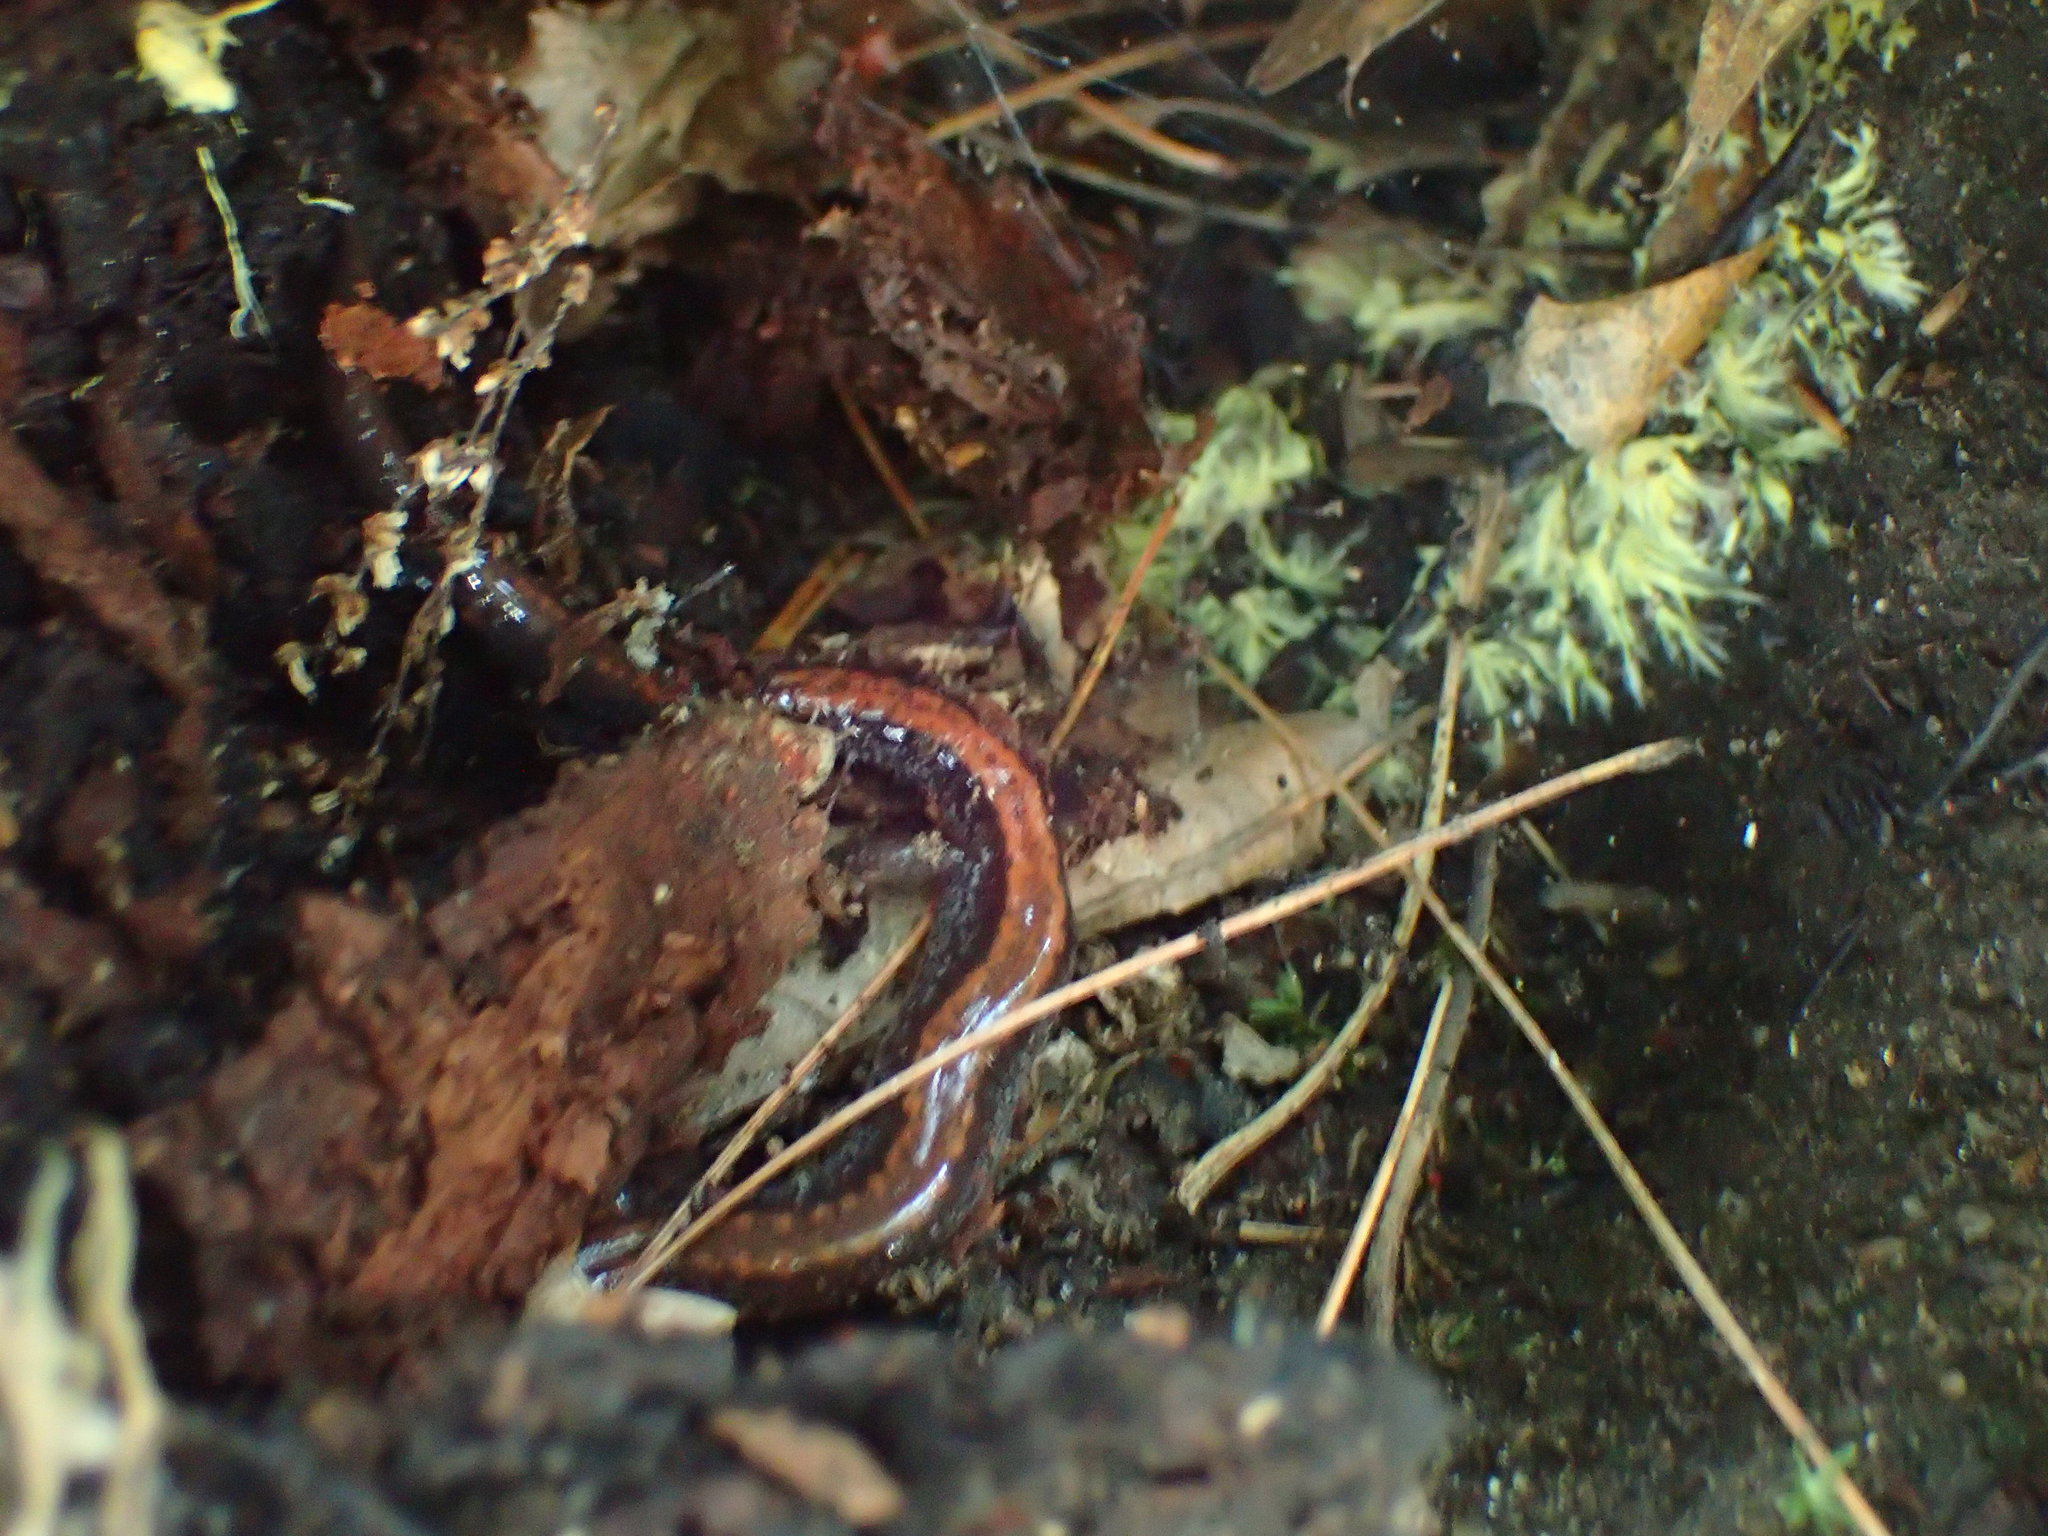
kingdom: Animalia
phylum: Chordata
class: Amphibia
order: Caudata
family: Plethodontidae
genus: Plethodon
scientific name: Plethodon cinereus
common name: Redback salamander
